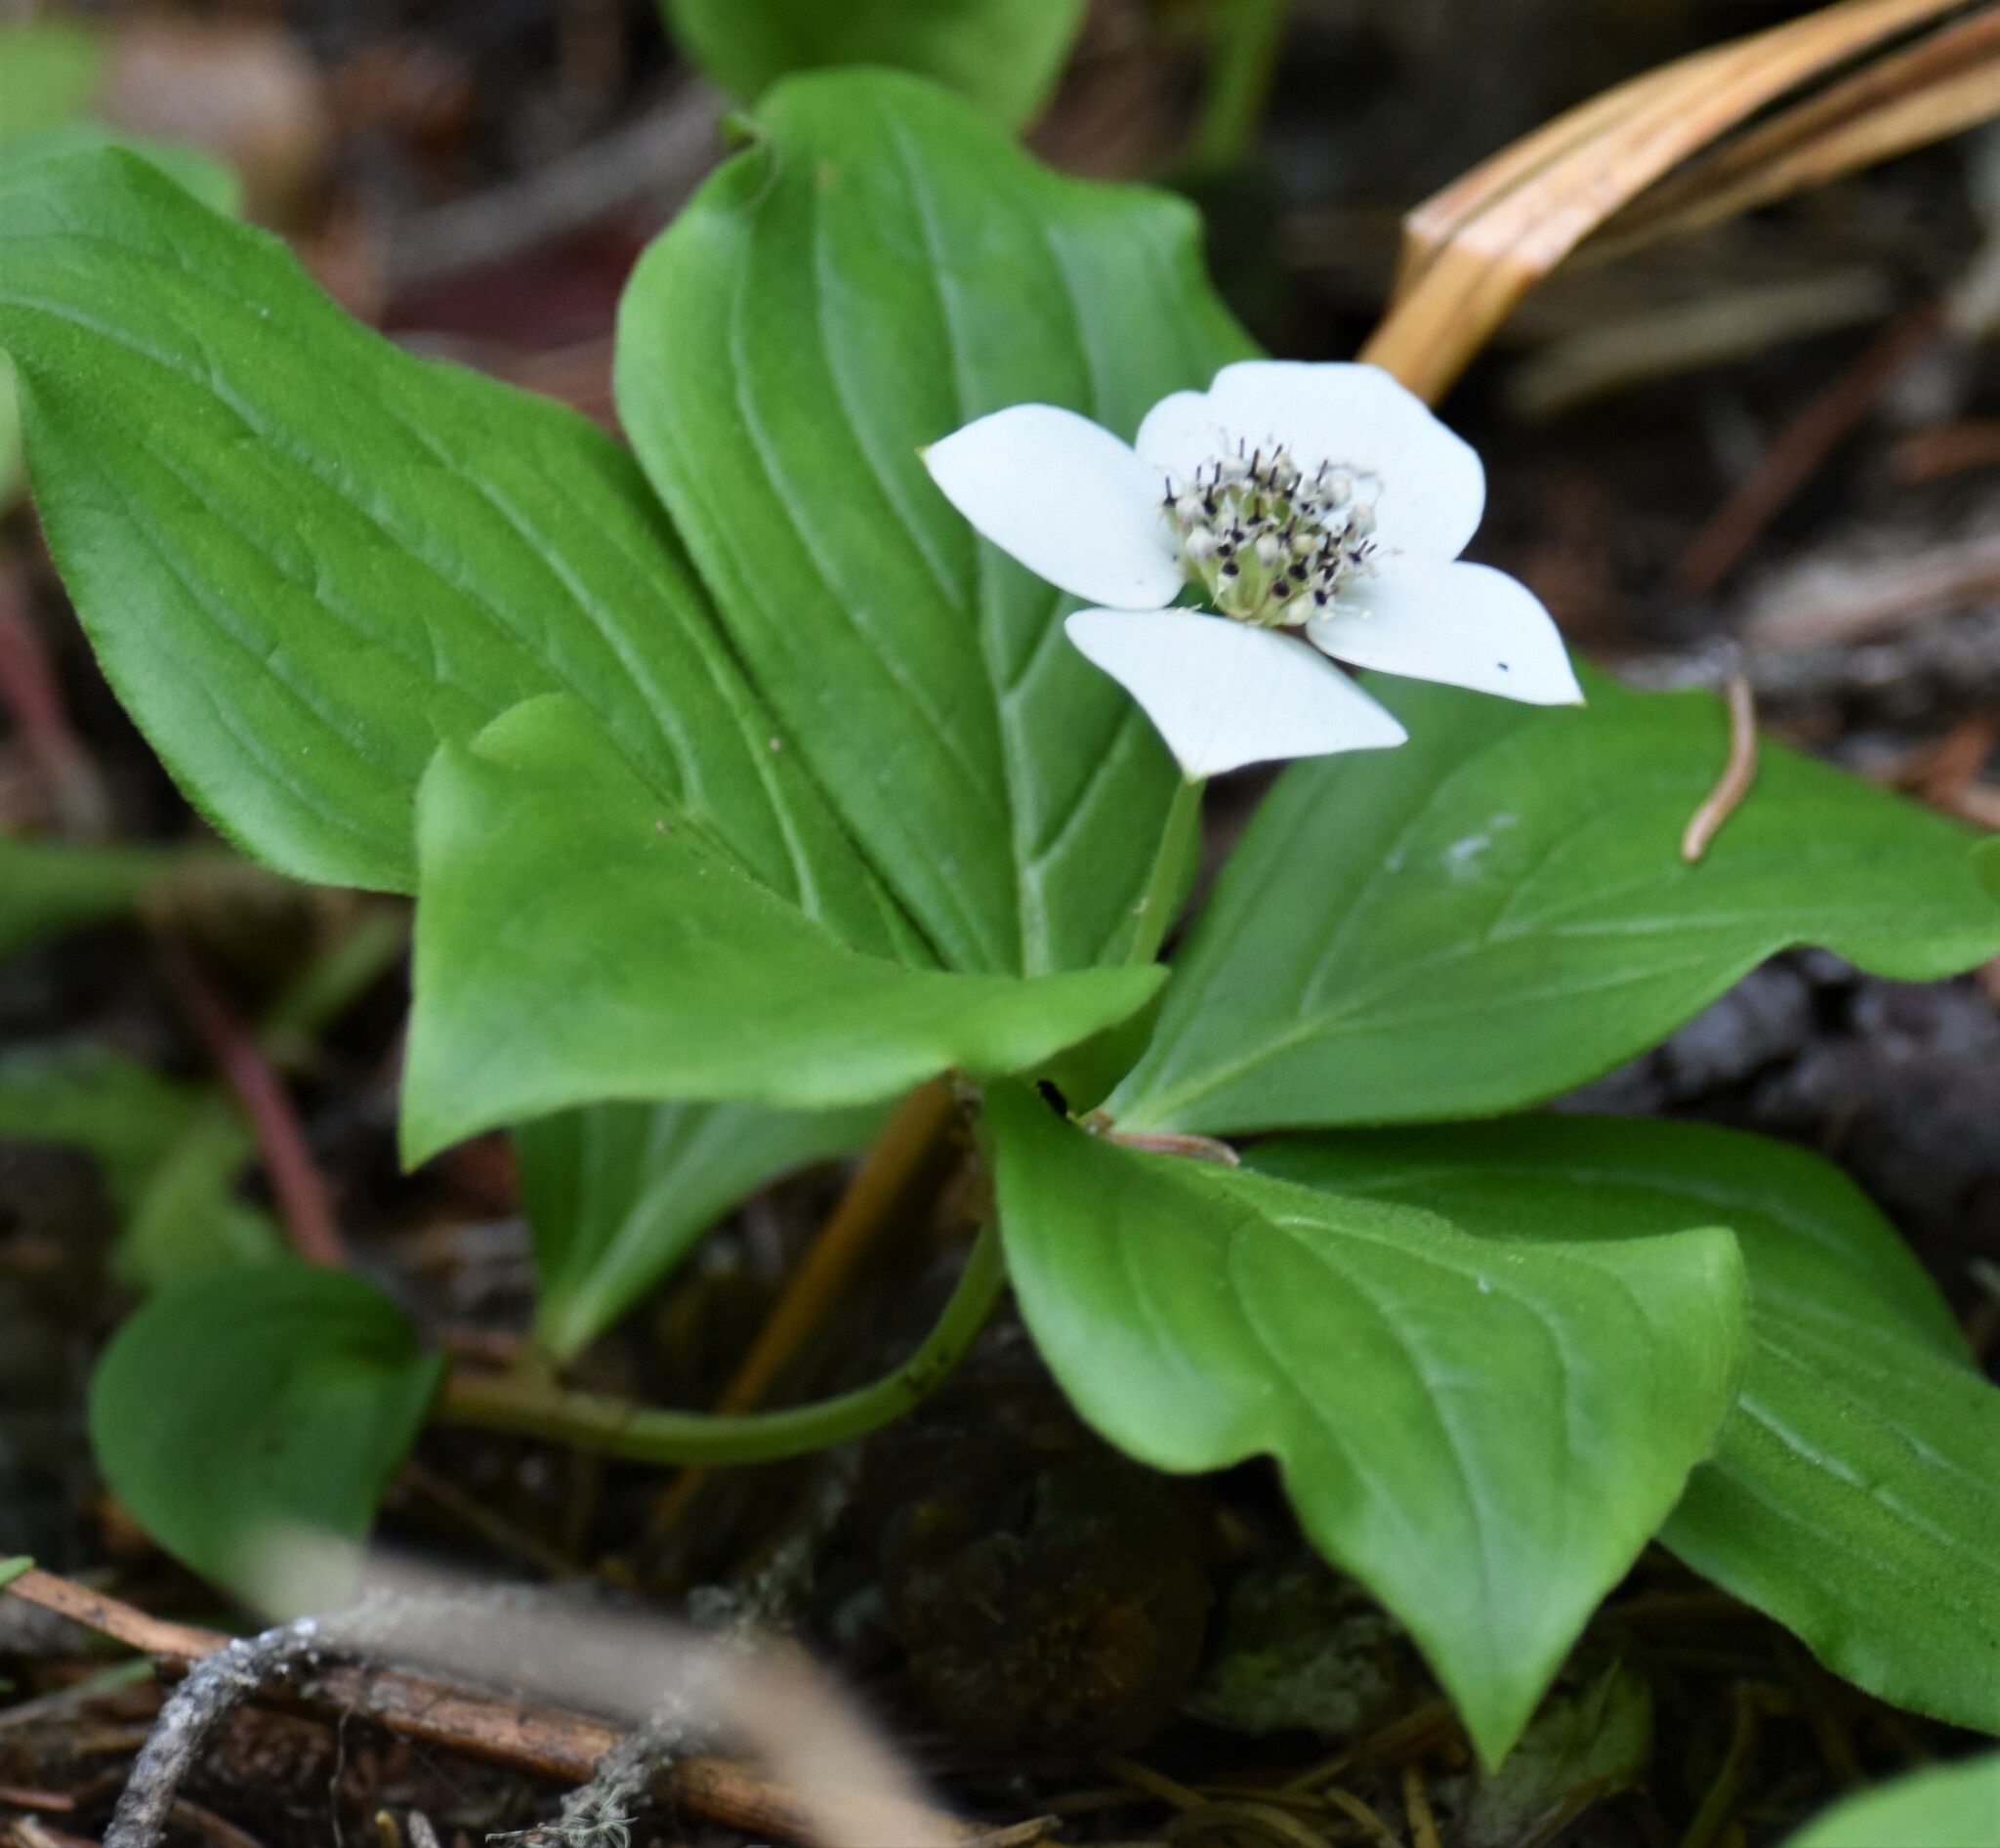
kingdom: Plantae
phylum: Tracheophyta
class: Magnoliopsida
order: Cornales
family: Cornaceae
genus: Cornus
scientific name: Cornus canadensis
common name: Creeping dogwood
